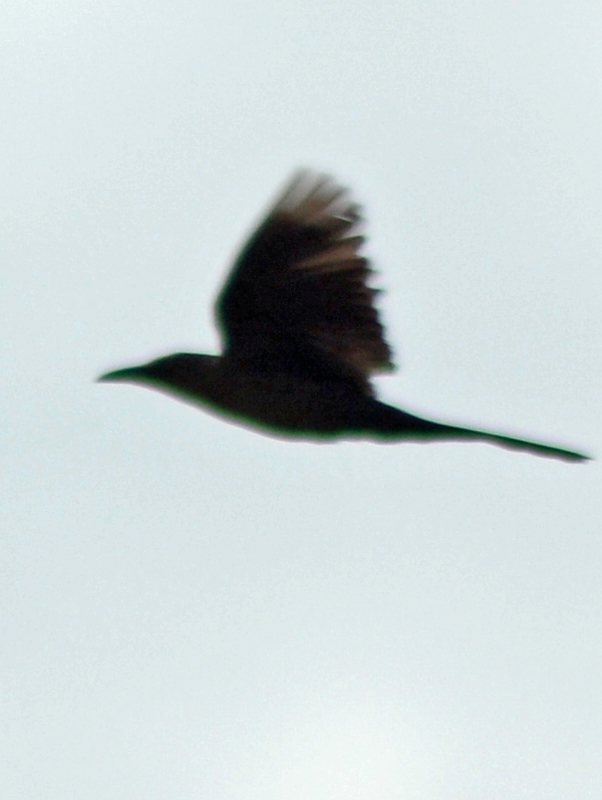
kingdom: Animalia
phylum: Chordata
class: Aves
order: Passeriformes
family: Icteridae
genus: Quiscalus
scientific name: Quiscalus mexicanus
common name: Great-tailed grackle
